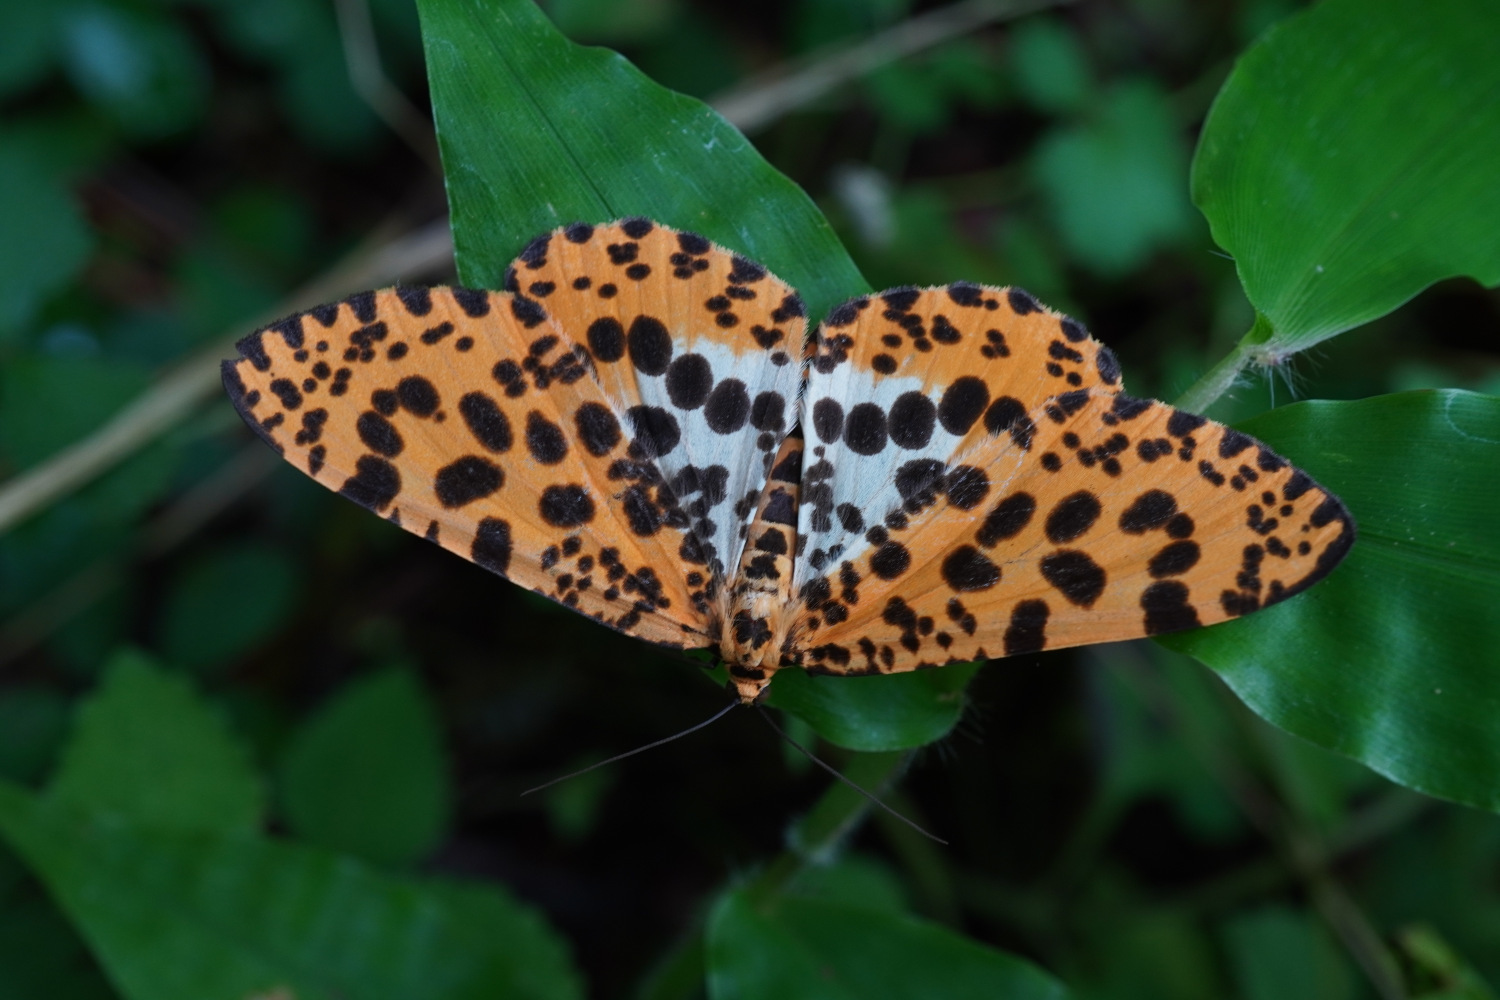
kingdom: Animalia
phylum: Arthropoda
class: Insecta
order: Lepidoptera
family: Geometridae
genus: Obeidia
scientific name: Obeidia Epobeidia tigrata
